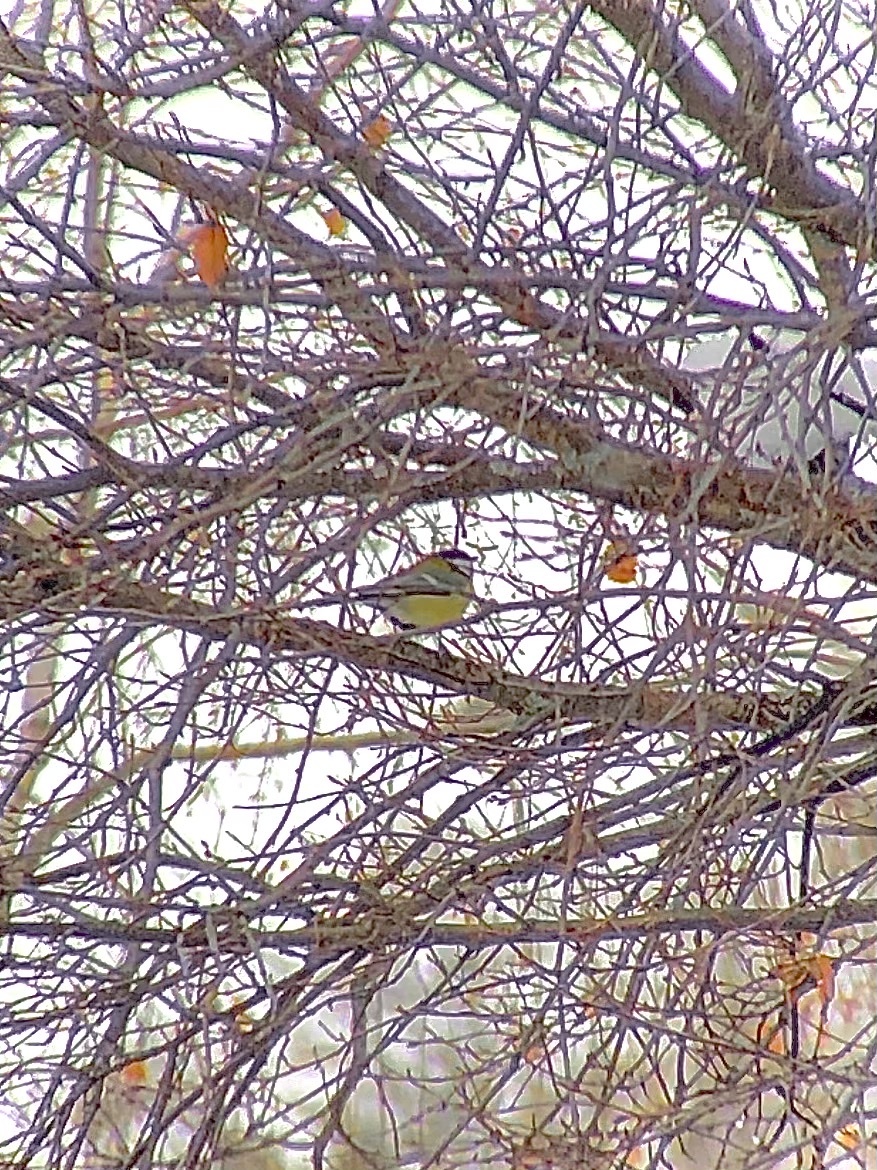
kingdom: Animalia
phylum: Chordata
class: Aves
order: Passeriformes
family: Paridae
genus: Parus
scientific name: Parus major
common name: Great tit
